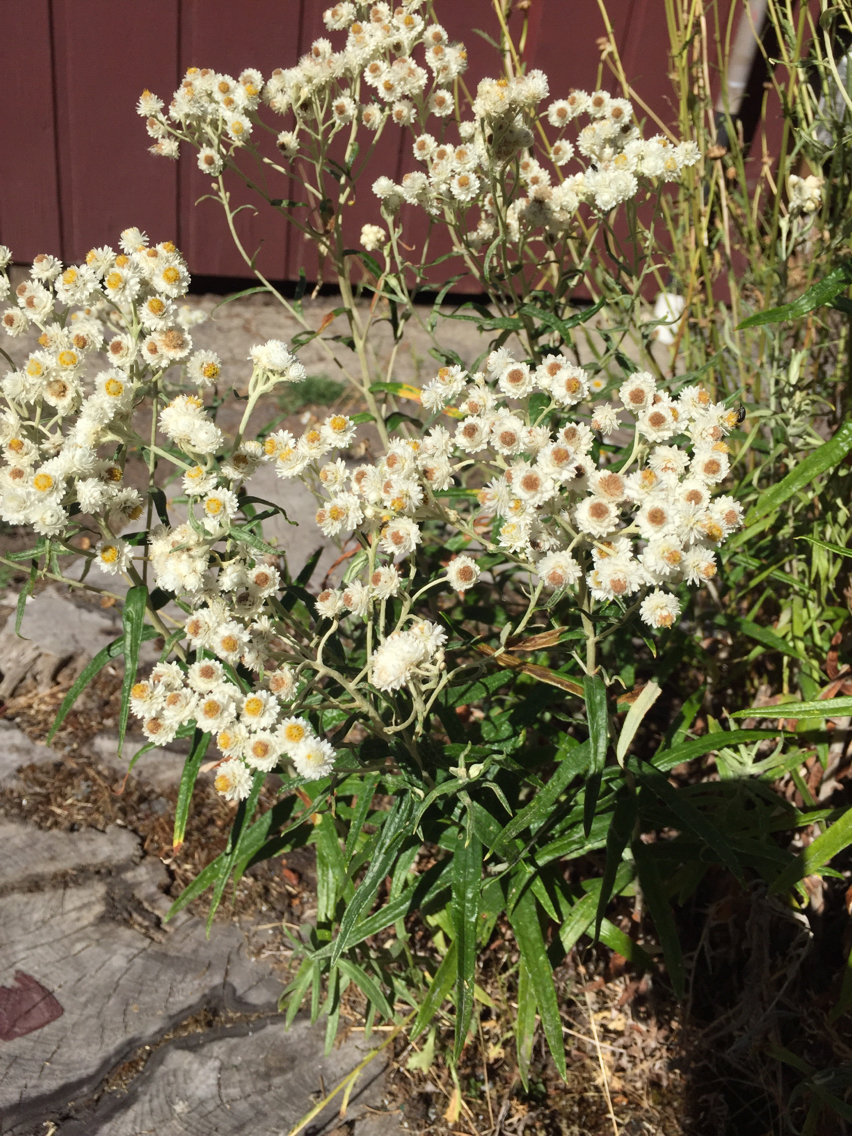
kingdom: Plantae
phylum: Tracheophyta
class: Magnoliopsida
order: Asterales
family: Asteraceae
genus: Anaphalis
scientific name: Anaphalis margaritacea
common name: Pearly everlasting
